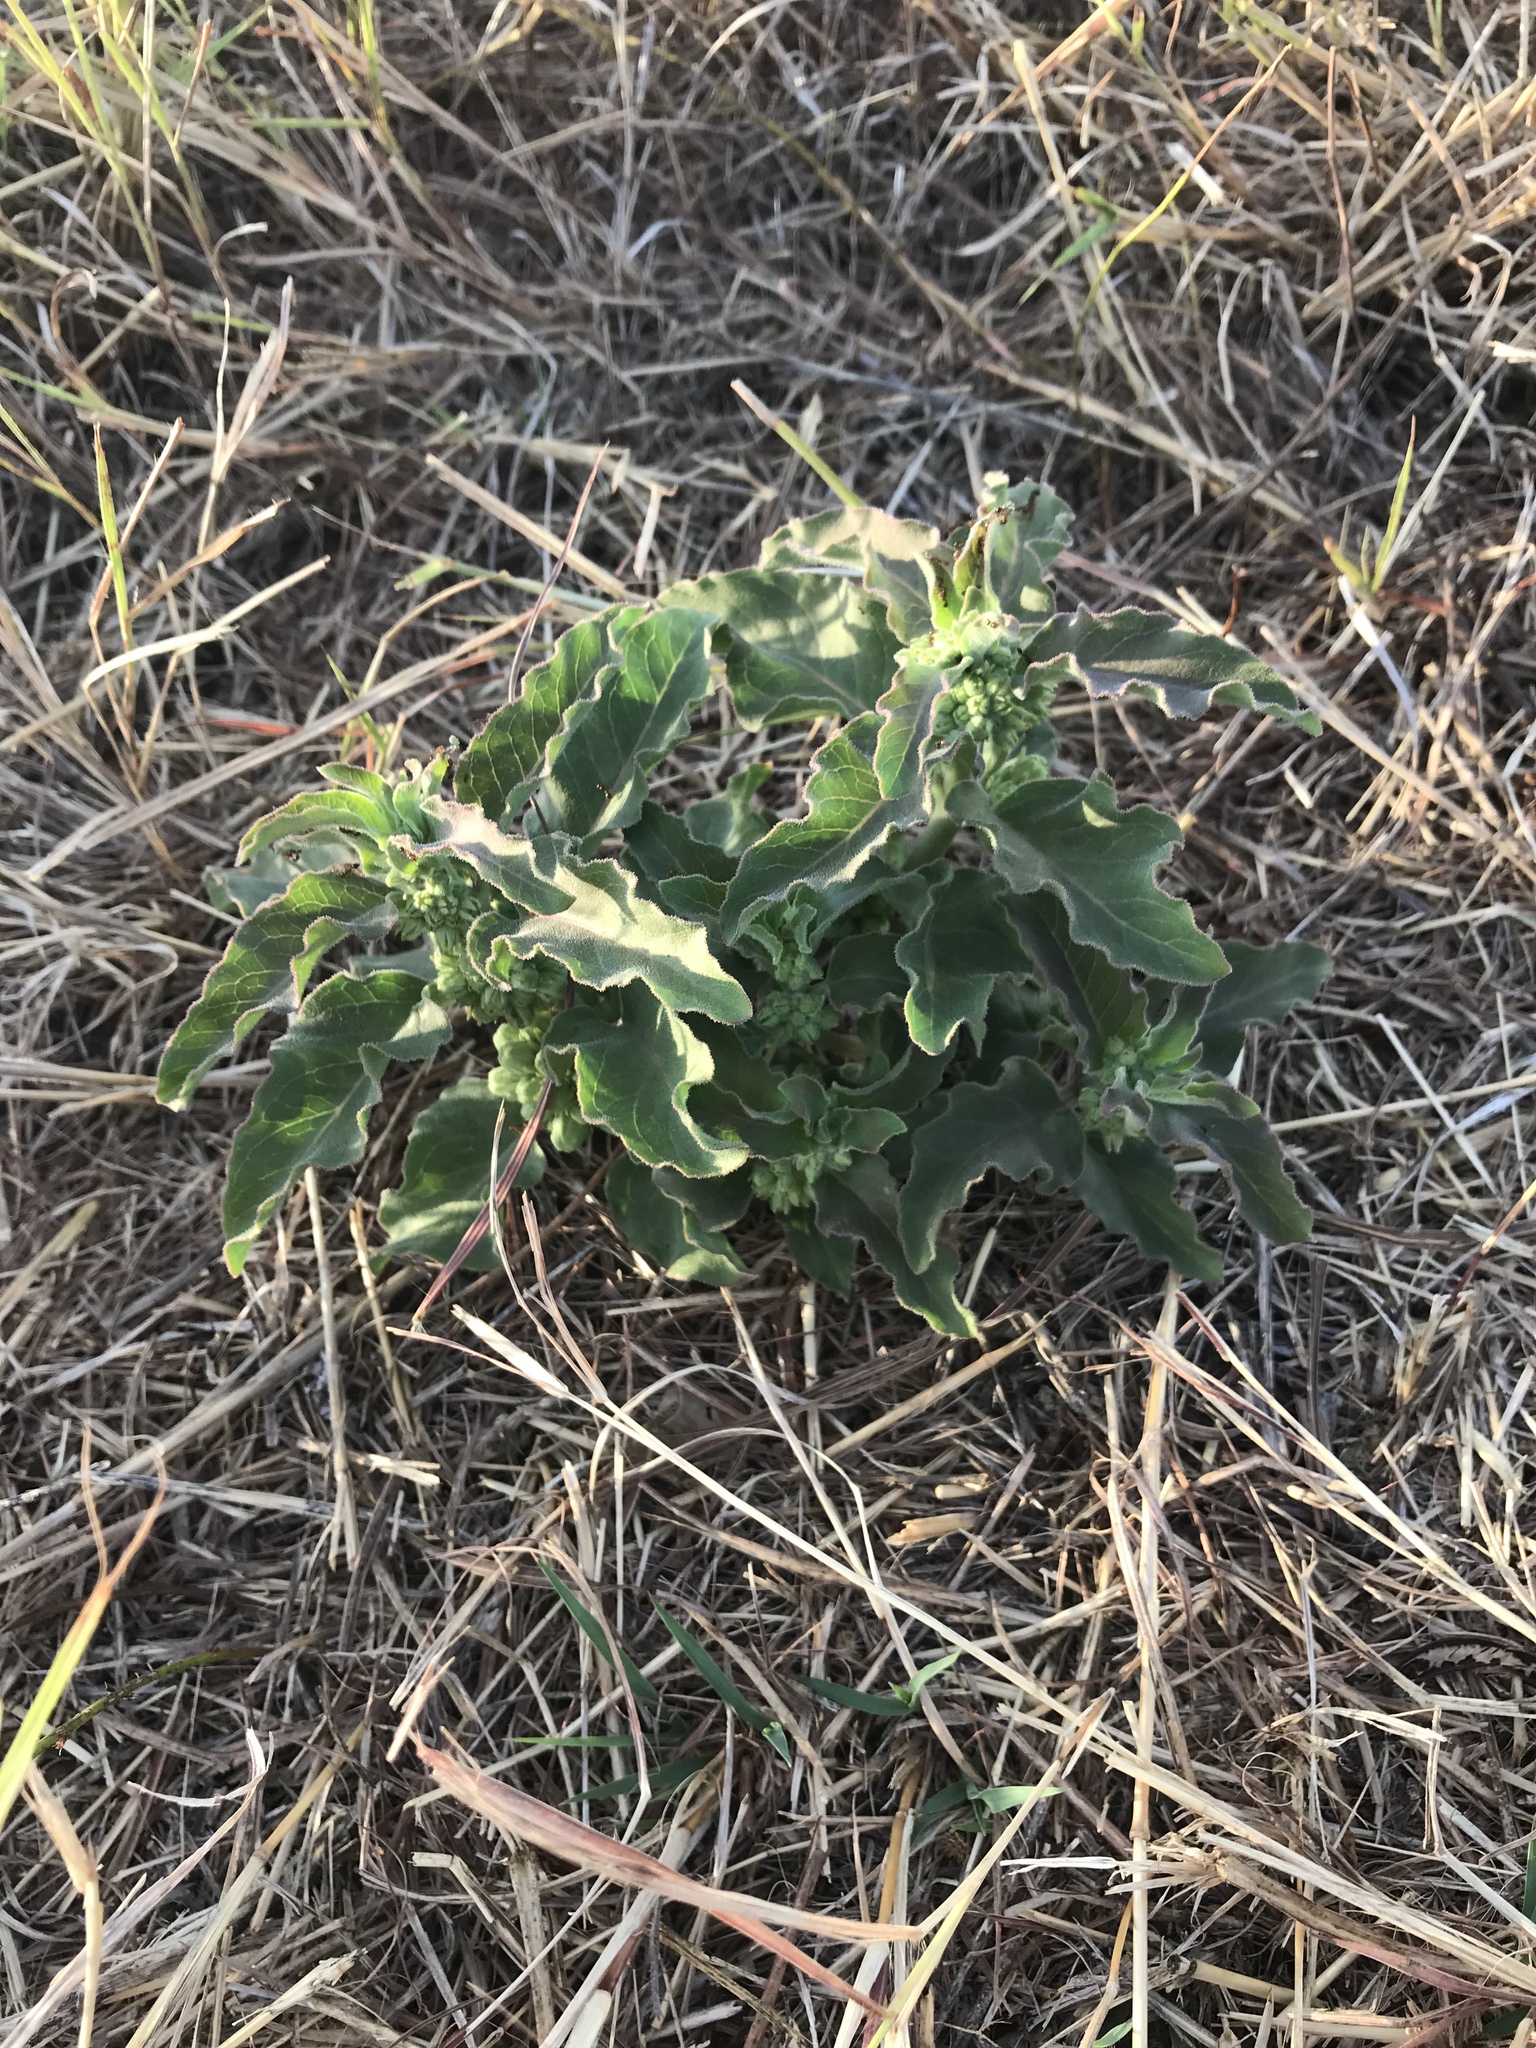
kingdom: Plantae
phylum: Tracheophyta
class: Magnoliopsida
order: Gentianales
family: Apocynaceae
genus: Asclepias
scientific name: Asclepias oenotheroides
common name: Zizotes milkweed
